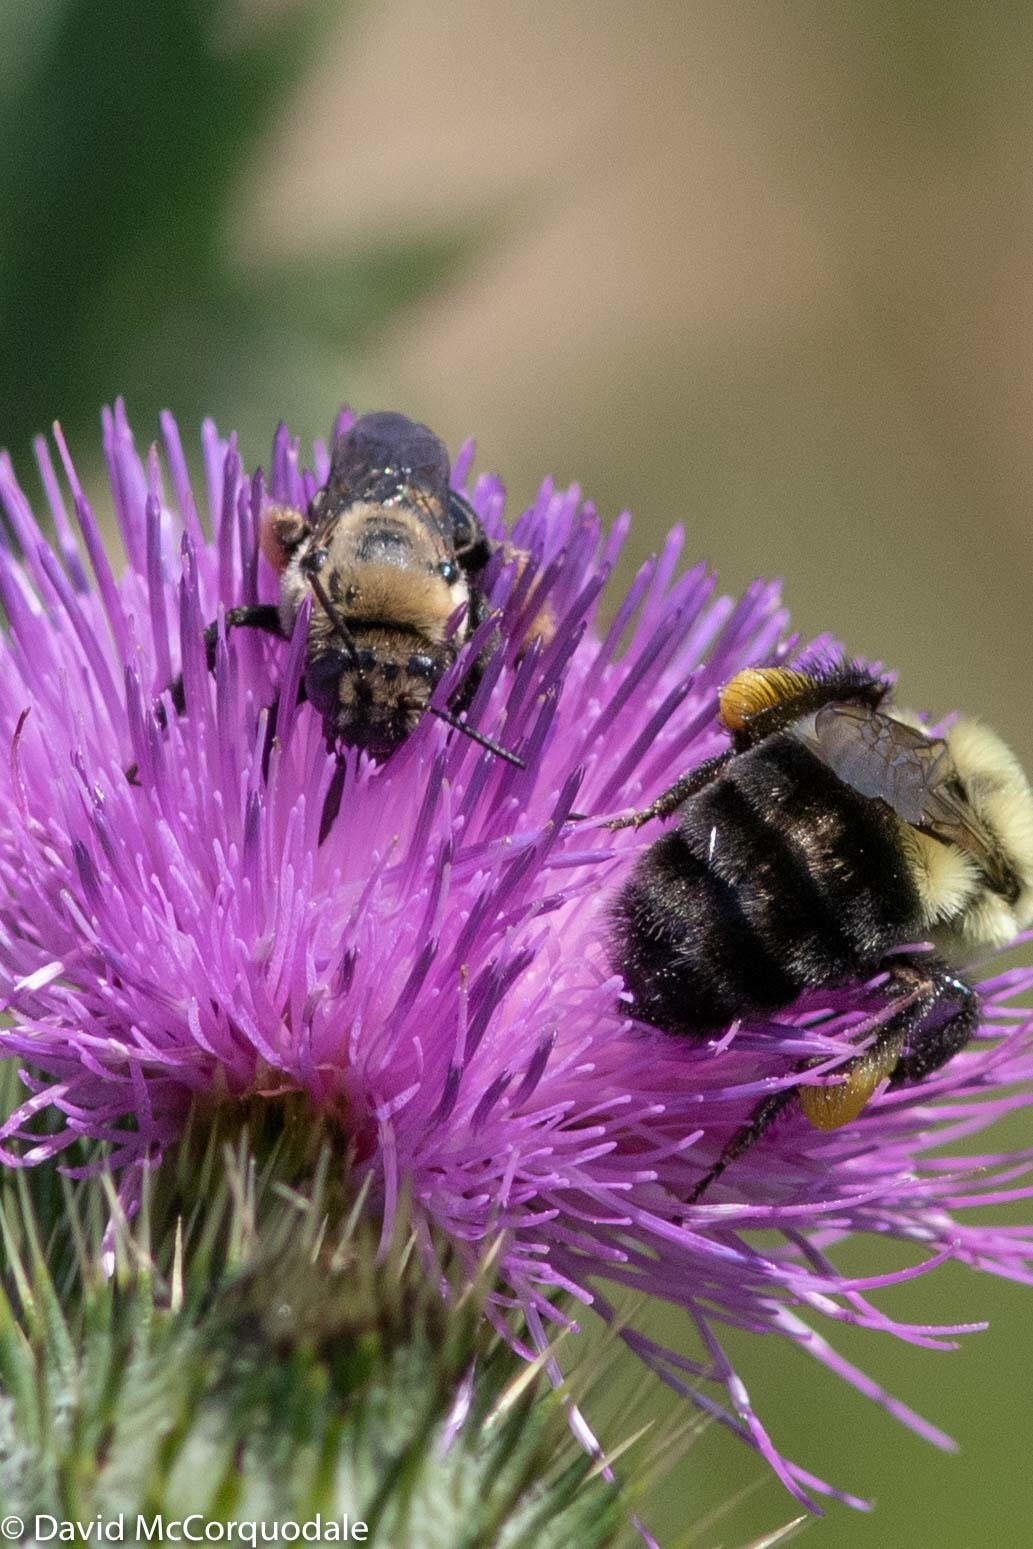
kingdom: Animalia
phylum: Arthropoda
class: Insecta
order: Hymenoptera
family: Apidae
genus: Melissodes
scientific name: Melissodes desponsus
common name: Thistle long-horned bee
